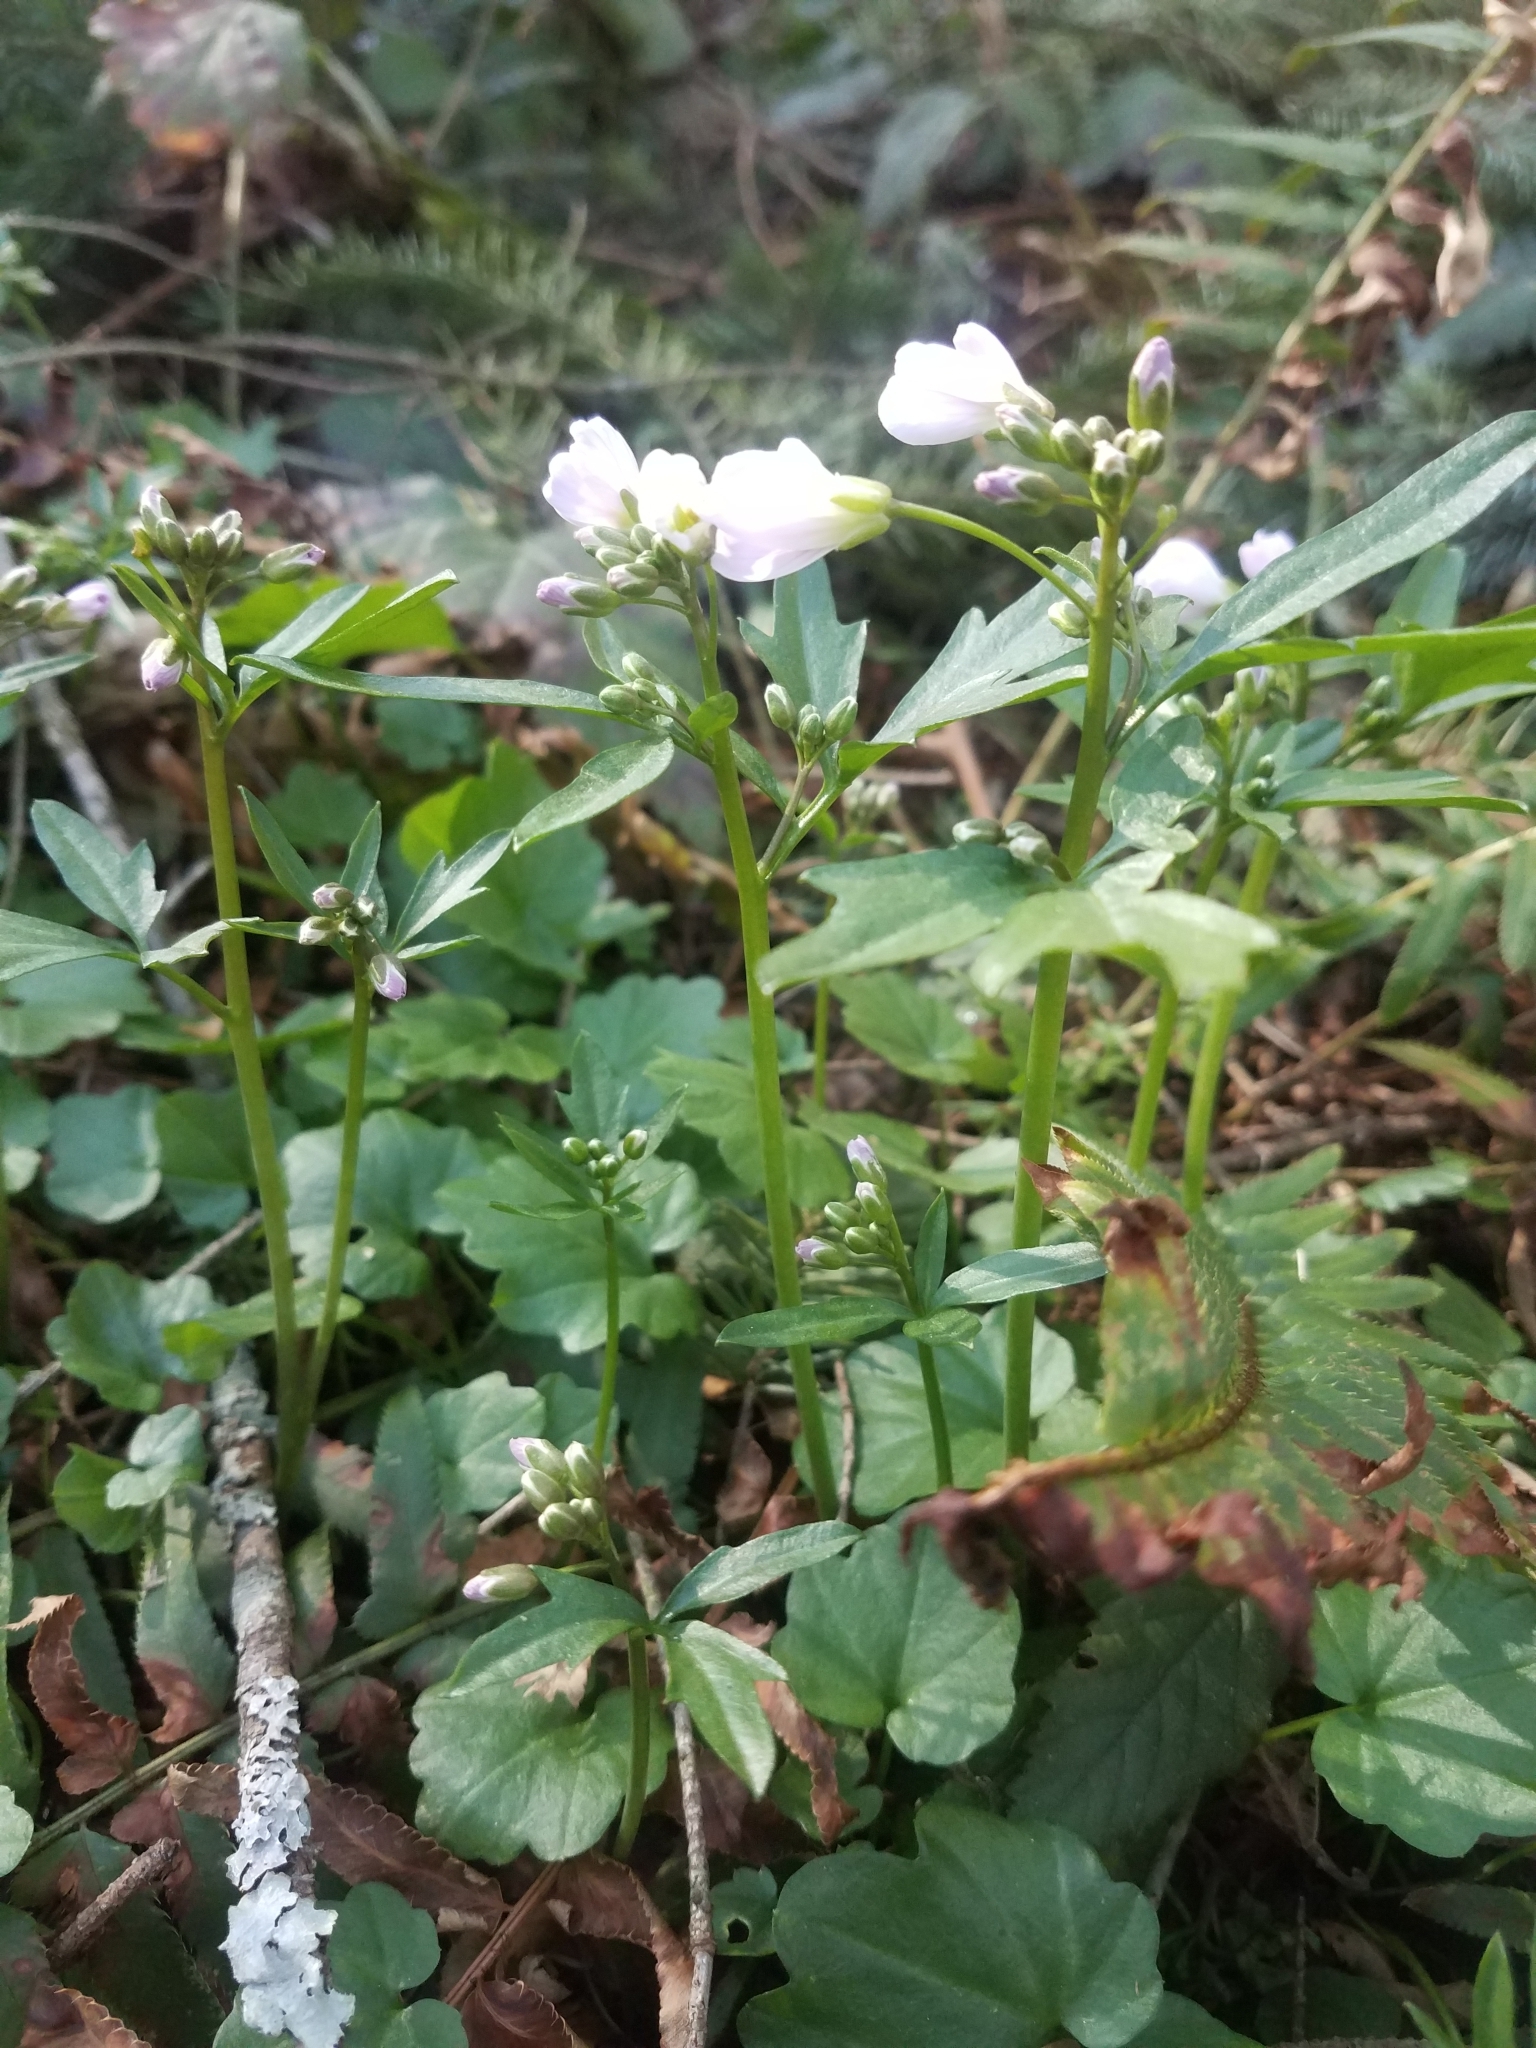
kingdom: Plantae
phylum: Tracheophyta
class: Magnoliopsida
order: Brassicales
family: Brassicaceae
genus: Cardamine
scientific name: Cardamine nuttallii
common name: Nuttall's toothwort
